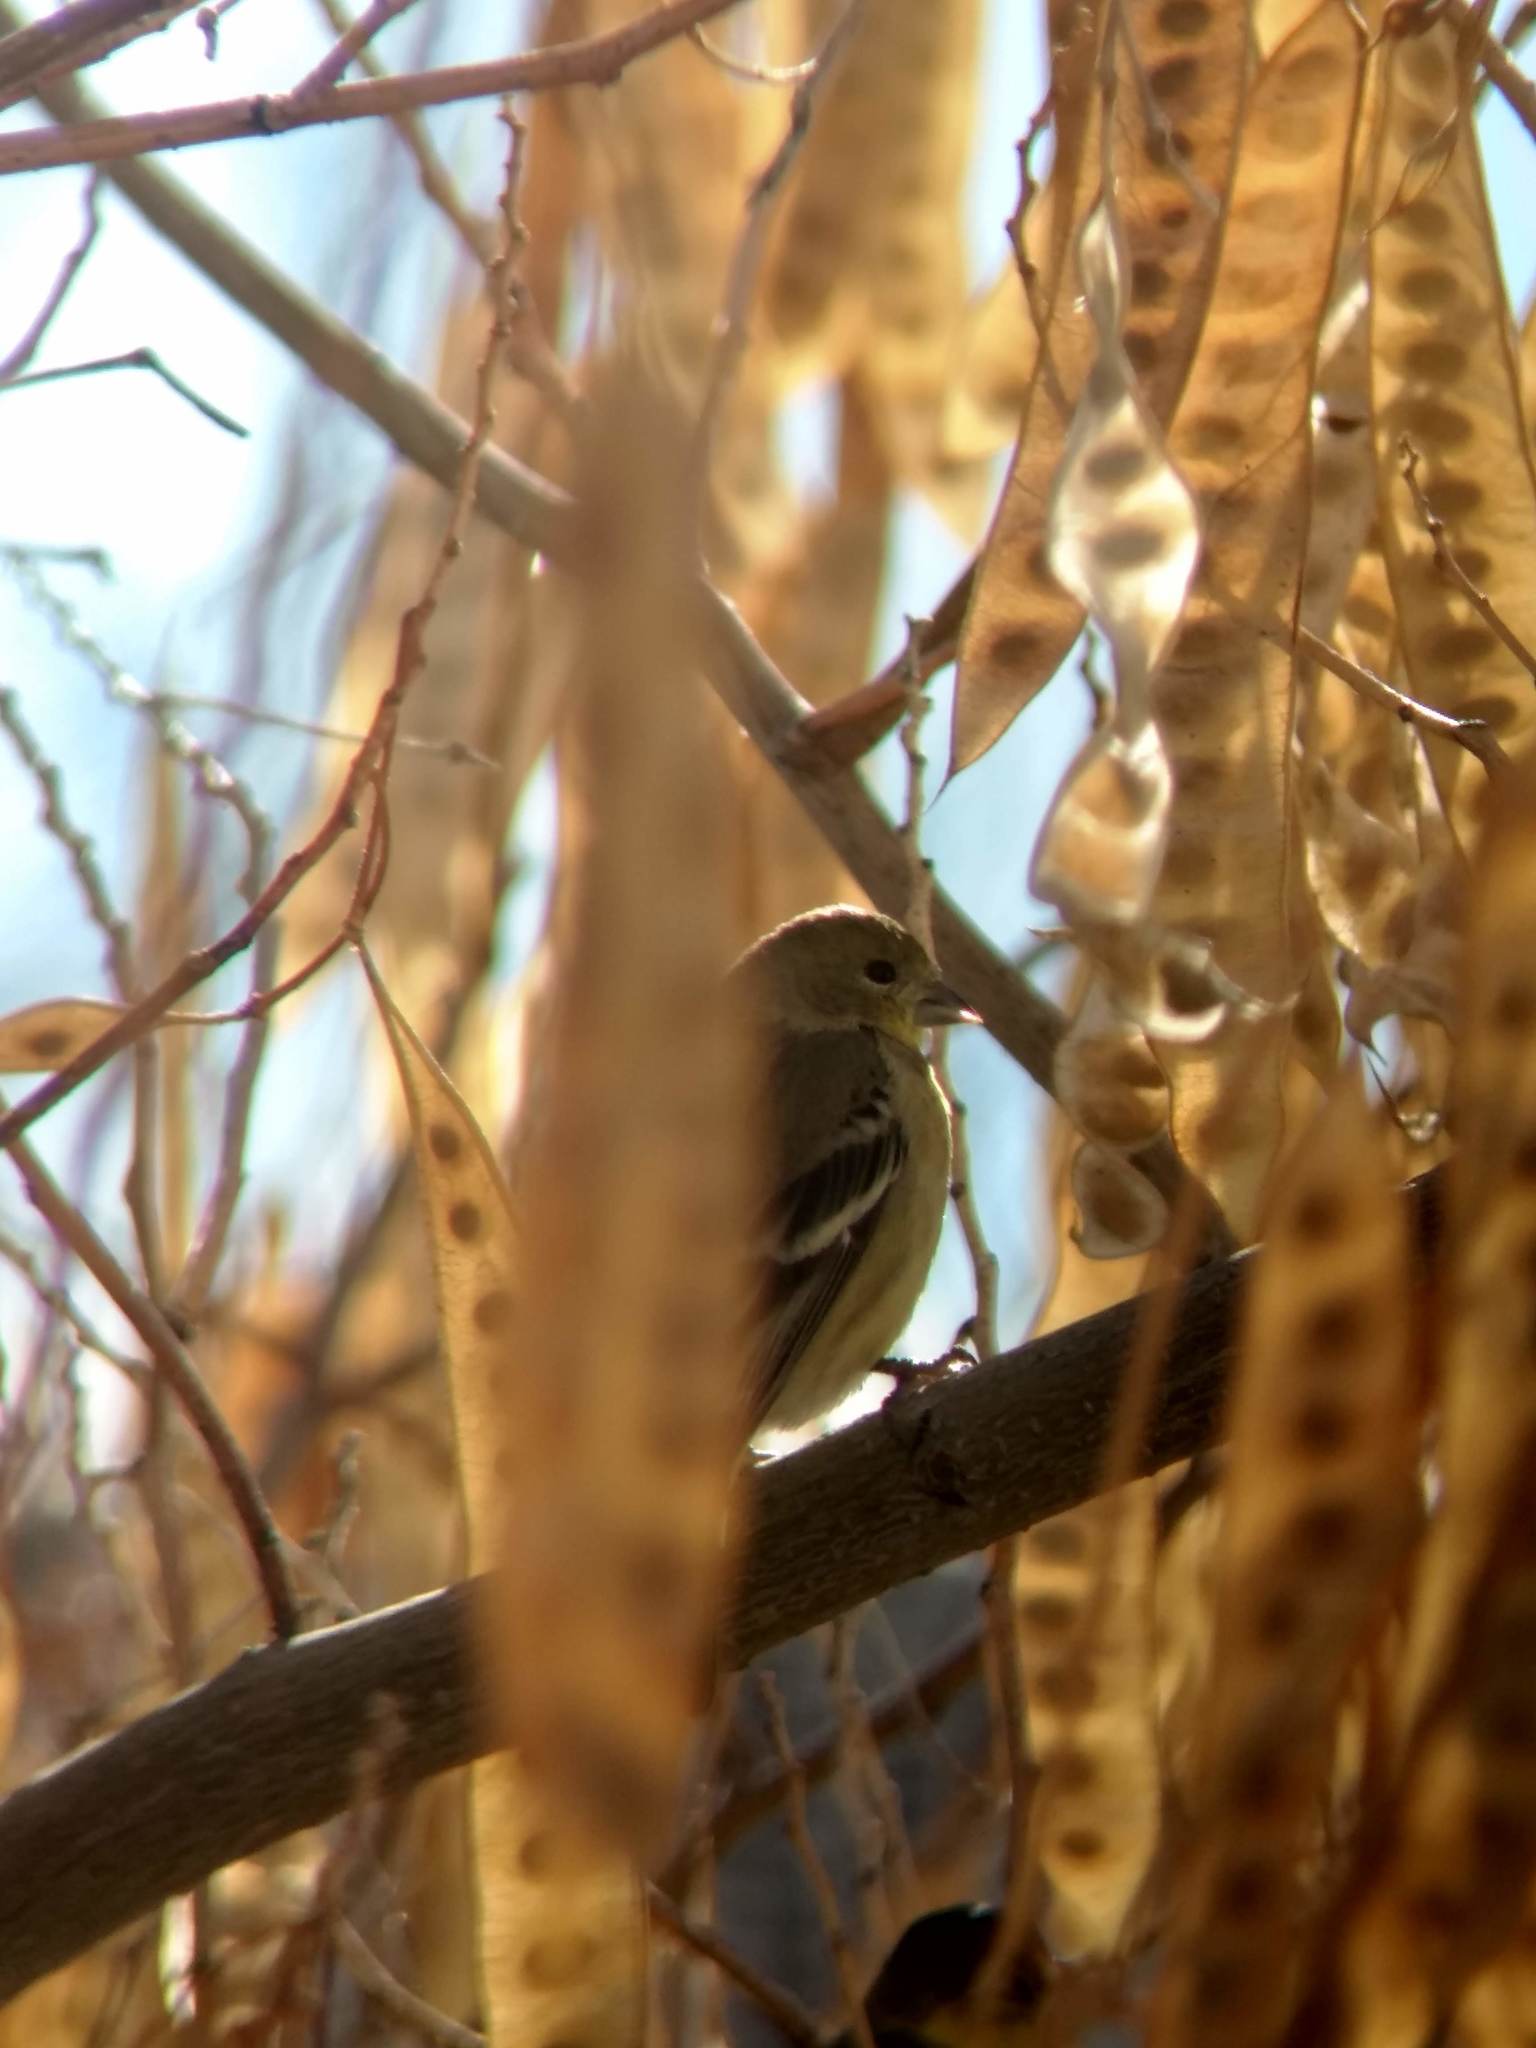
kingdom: Animalia
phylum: Chordata
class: Aves
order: Passeriformes
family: Fringillidae
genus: Spinus
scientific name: Spinus psaltria
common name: Lesser goldfinch
